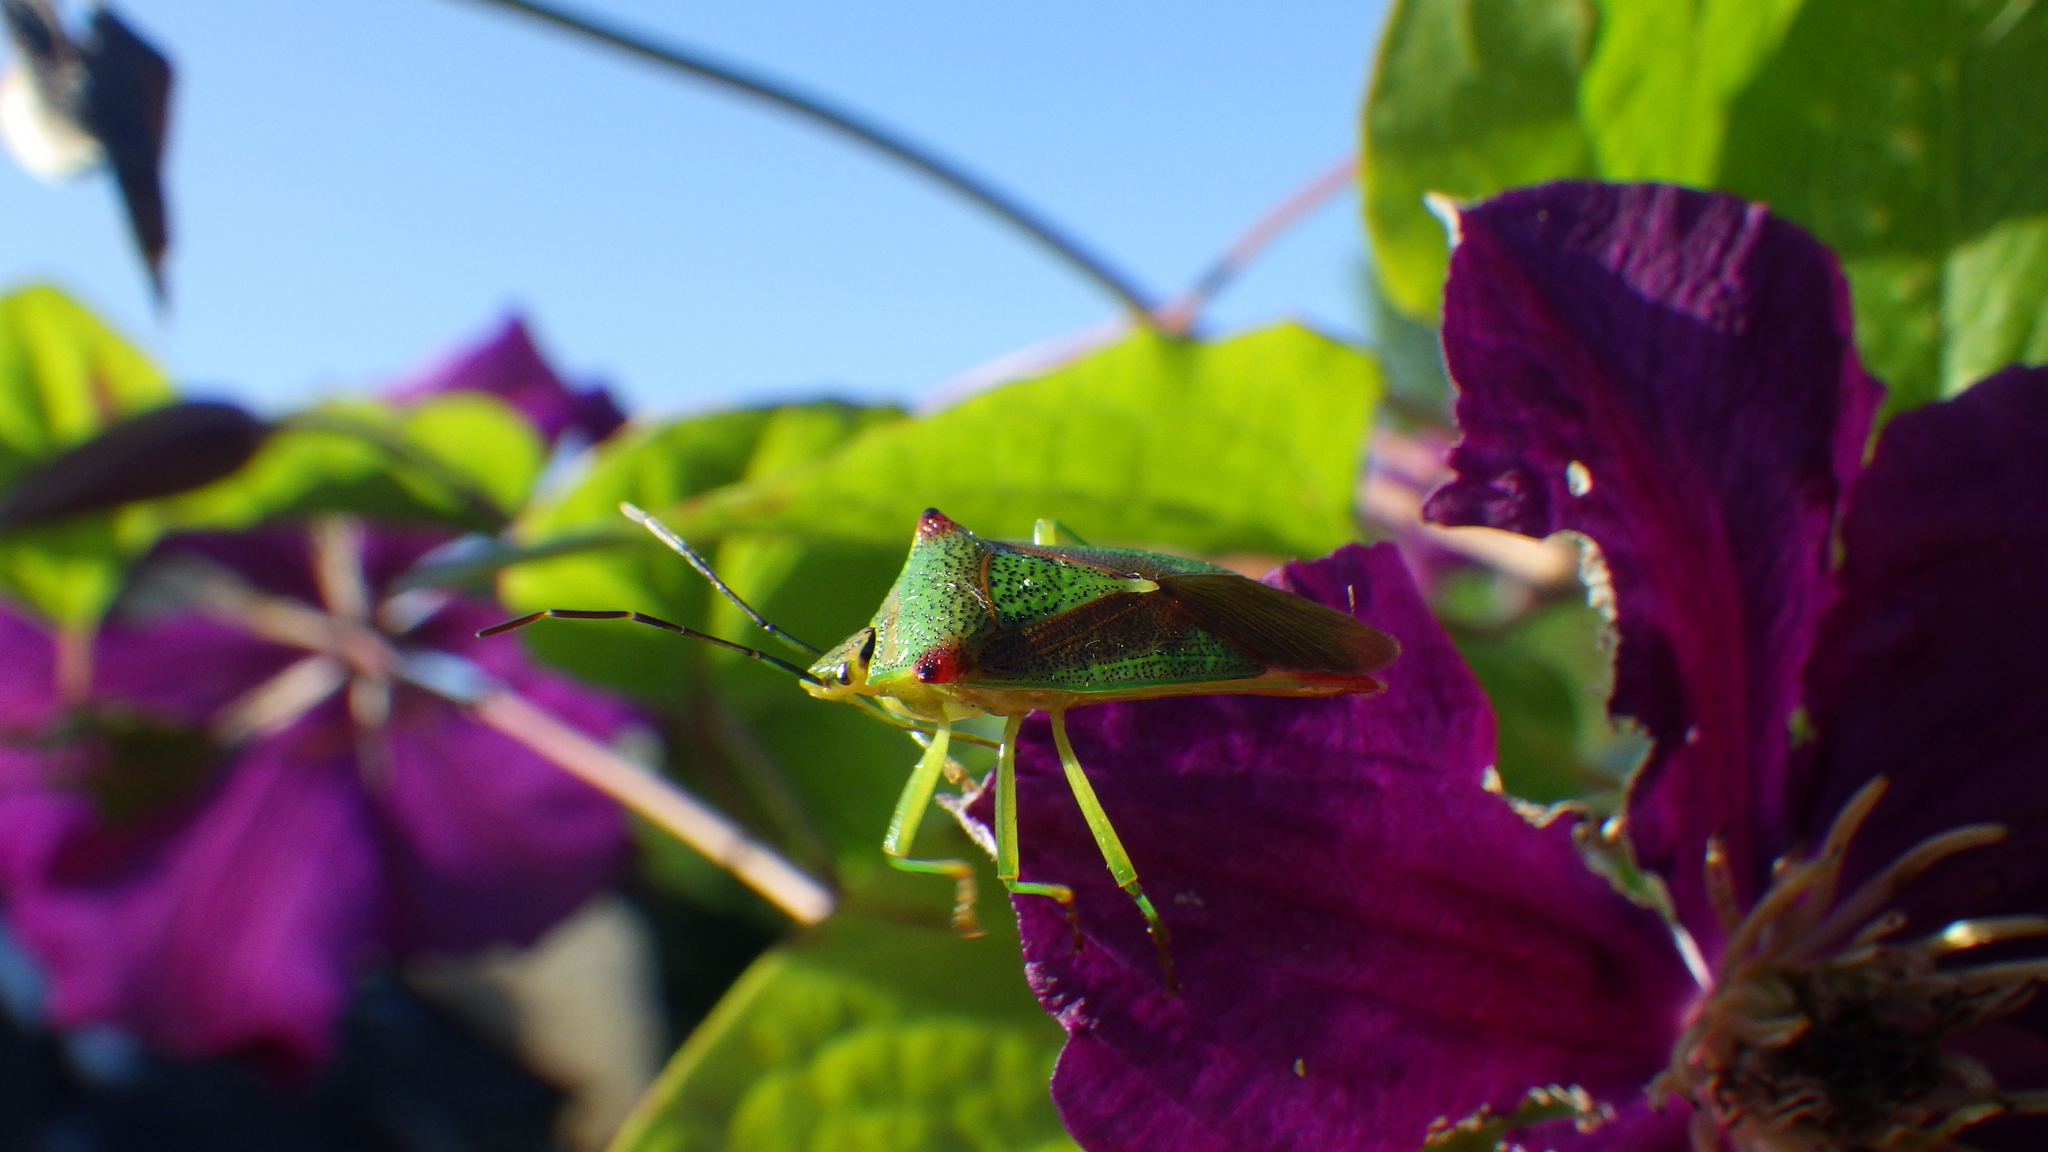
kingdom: Animalia
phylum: Arthropoda
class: Insecta
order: Hemiptera
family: Acanthosomatidae
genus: Acanthosoma
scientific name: Acanthosoma haemorrhoidale
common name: Hawthorn shieldbug
